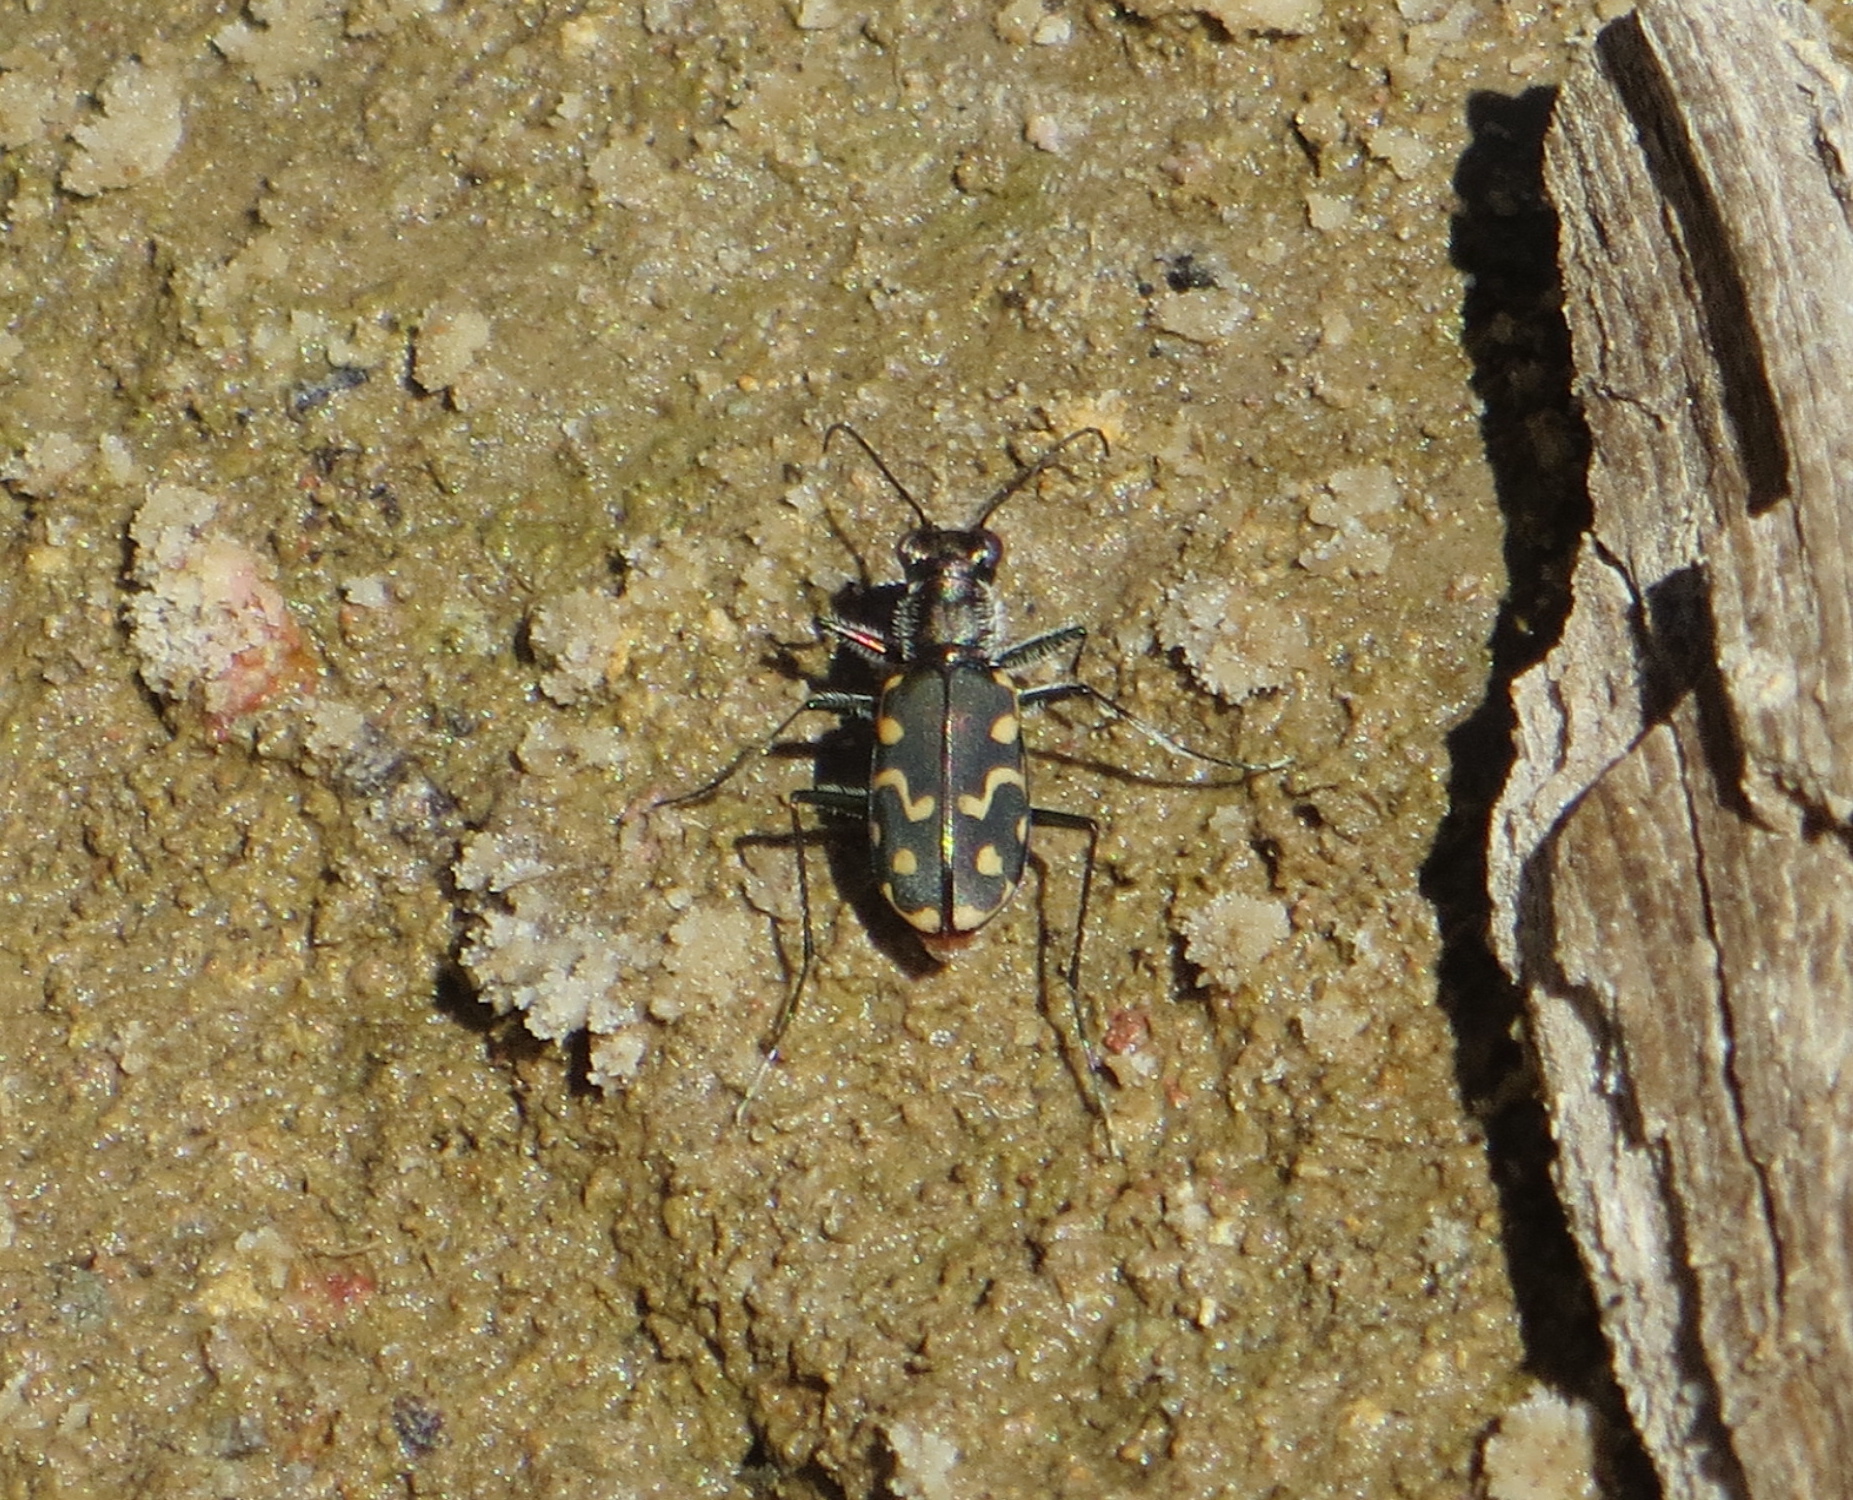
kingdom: Animalia
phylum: Arthropoda
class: Insecta
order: Coleoptera
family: Carabidae
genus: Cicindela
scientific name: Cicindela hemorrhagica
